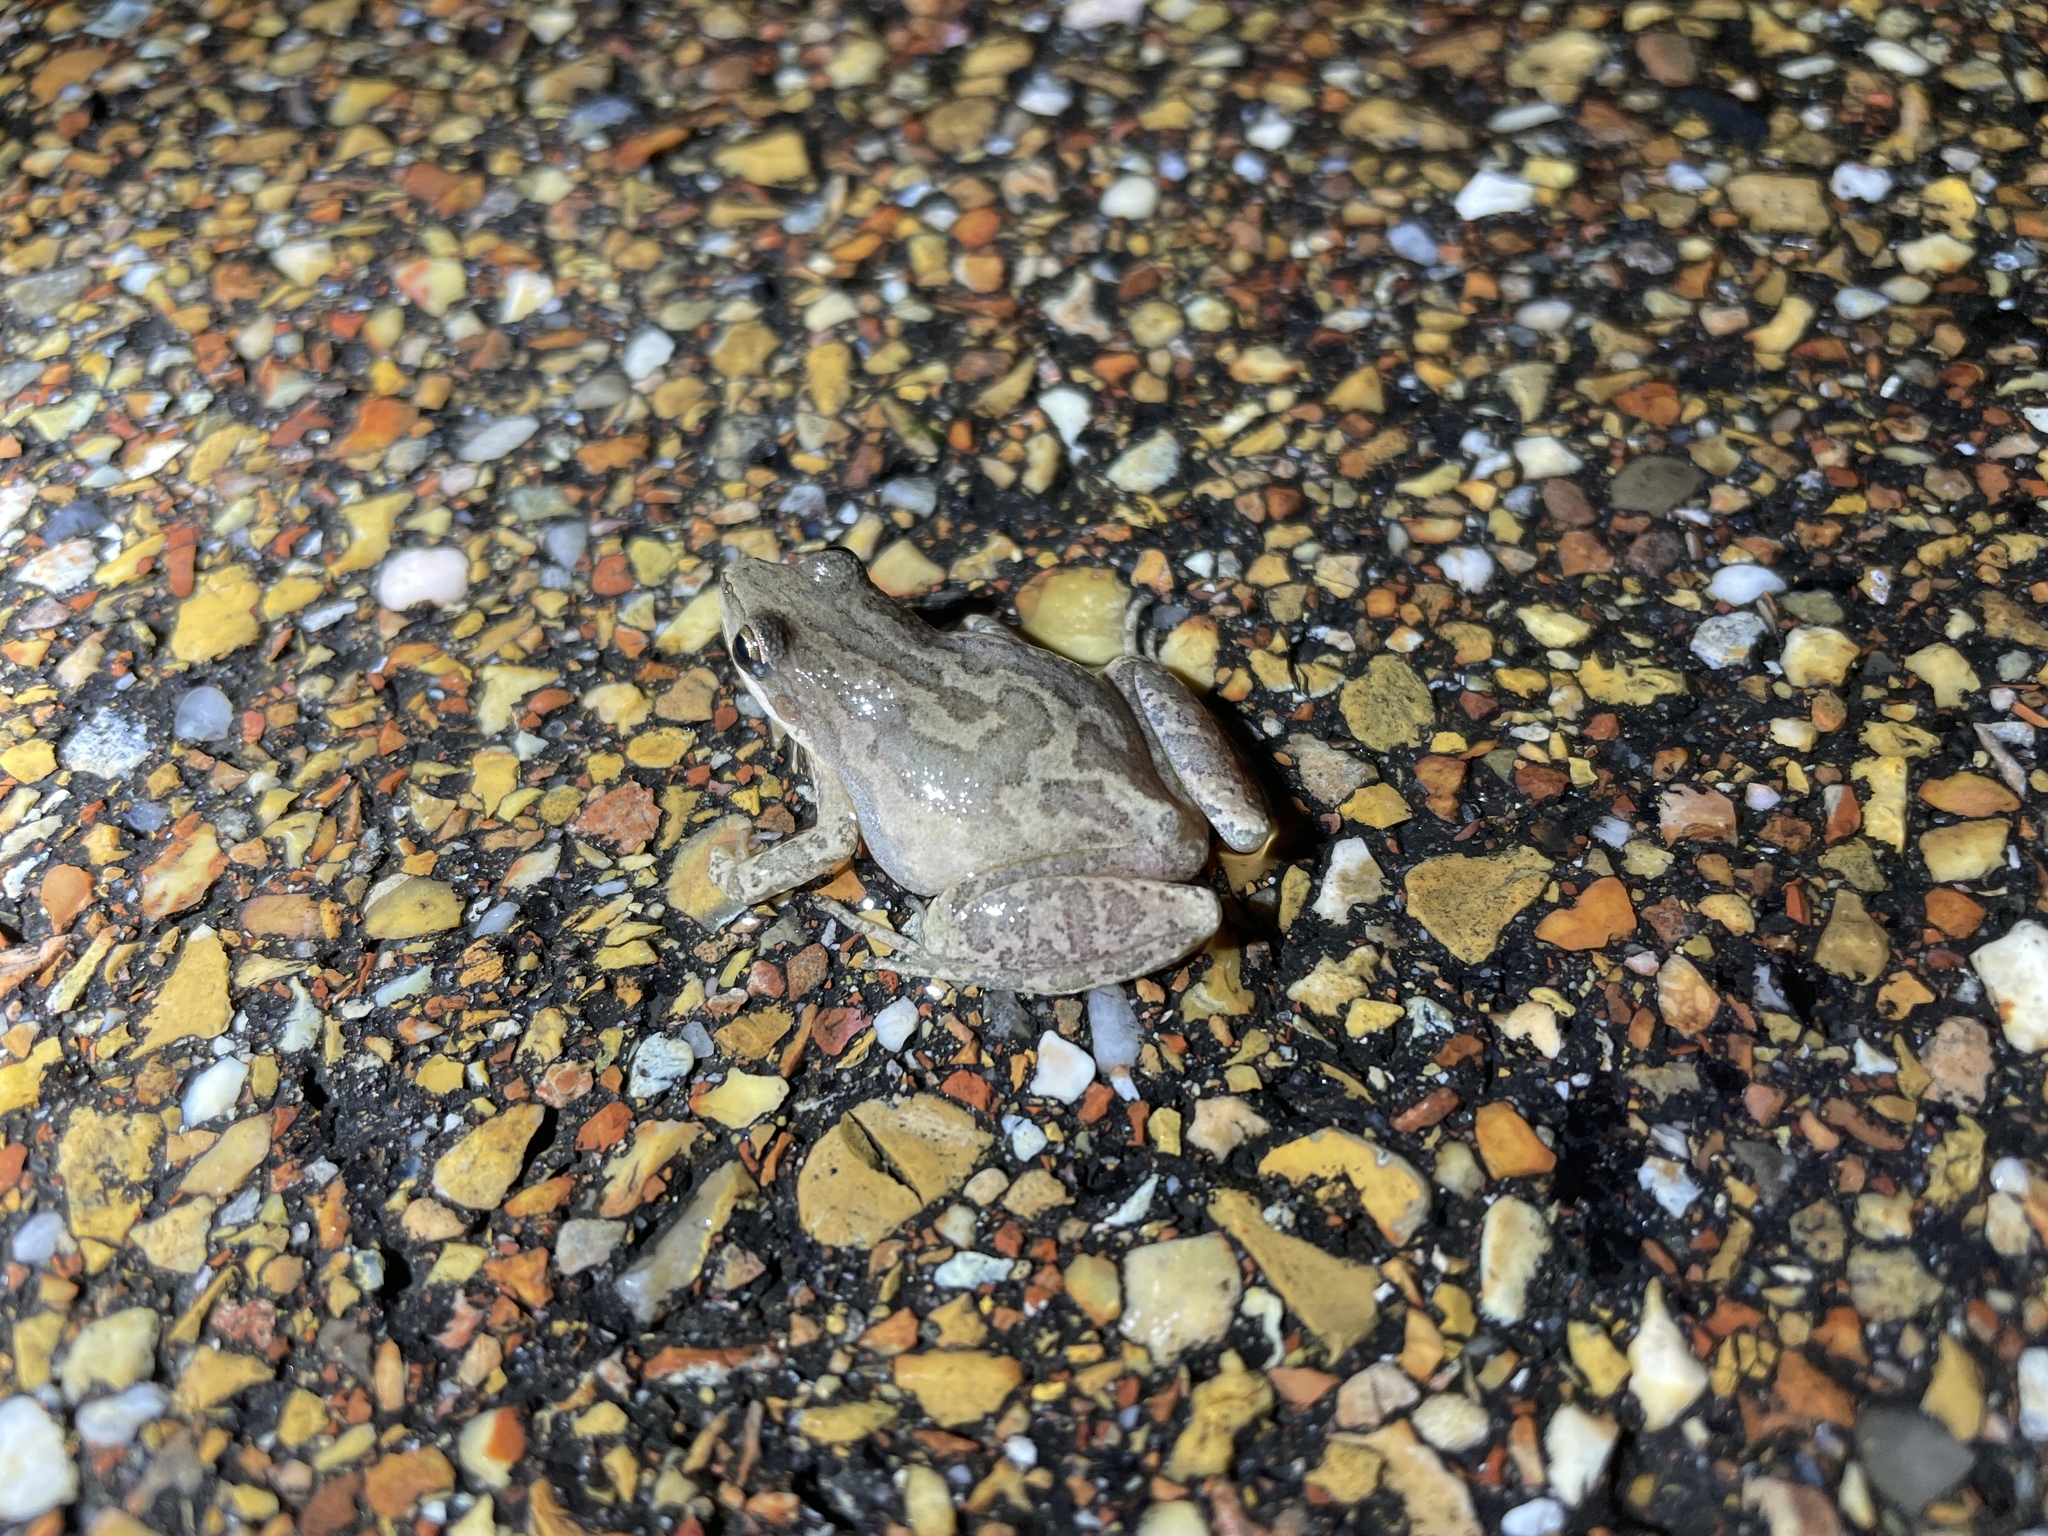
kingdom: Animalia
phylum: Chordata
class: Amphibia
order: Anura
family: Hylidae
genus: Pseudacris
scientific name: Pseudacris fouquettei
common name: Cajun chorus frog
